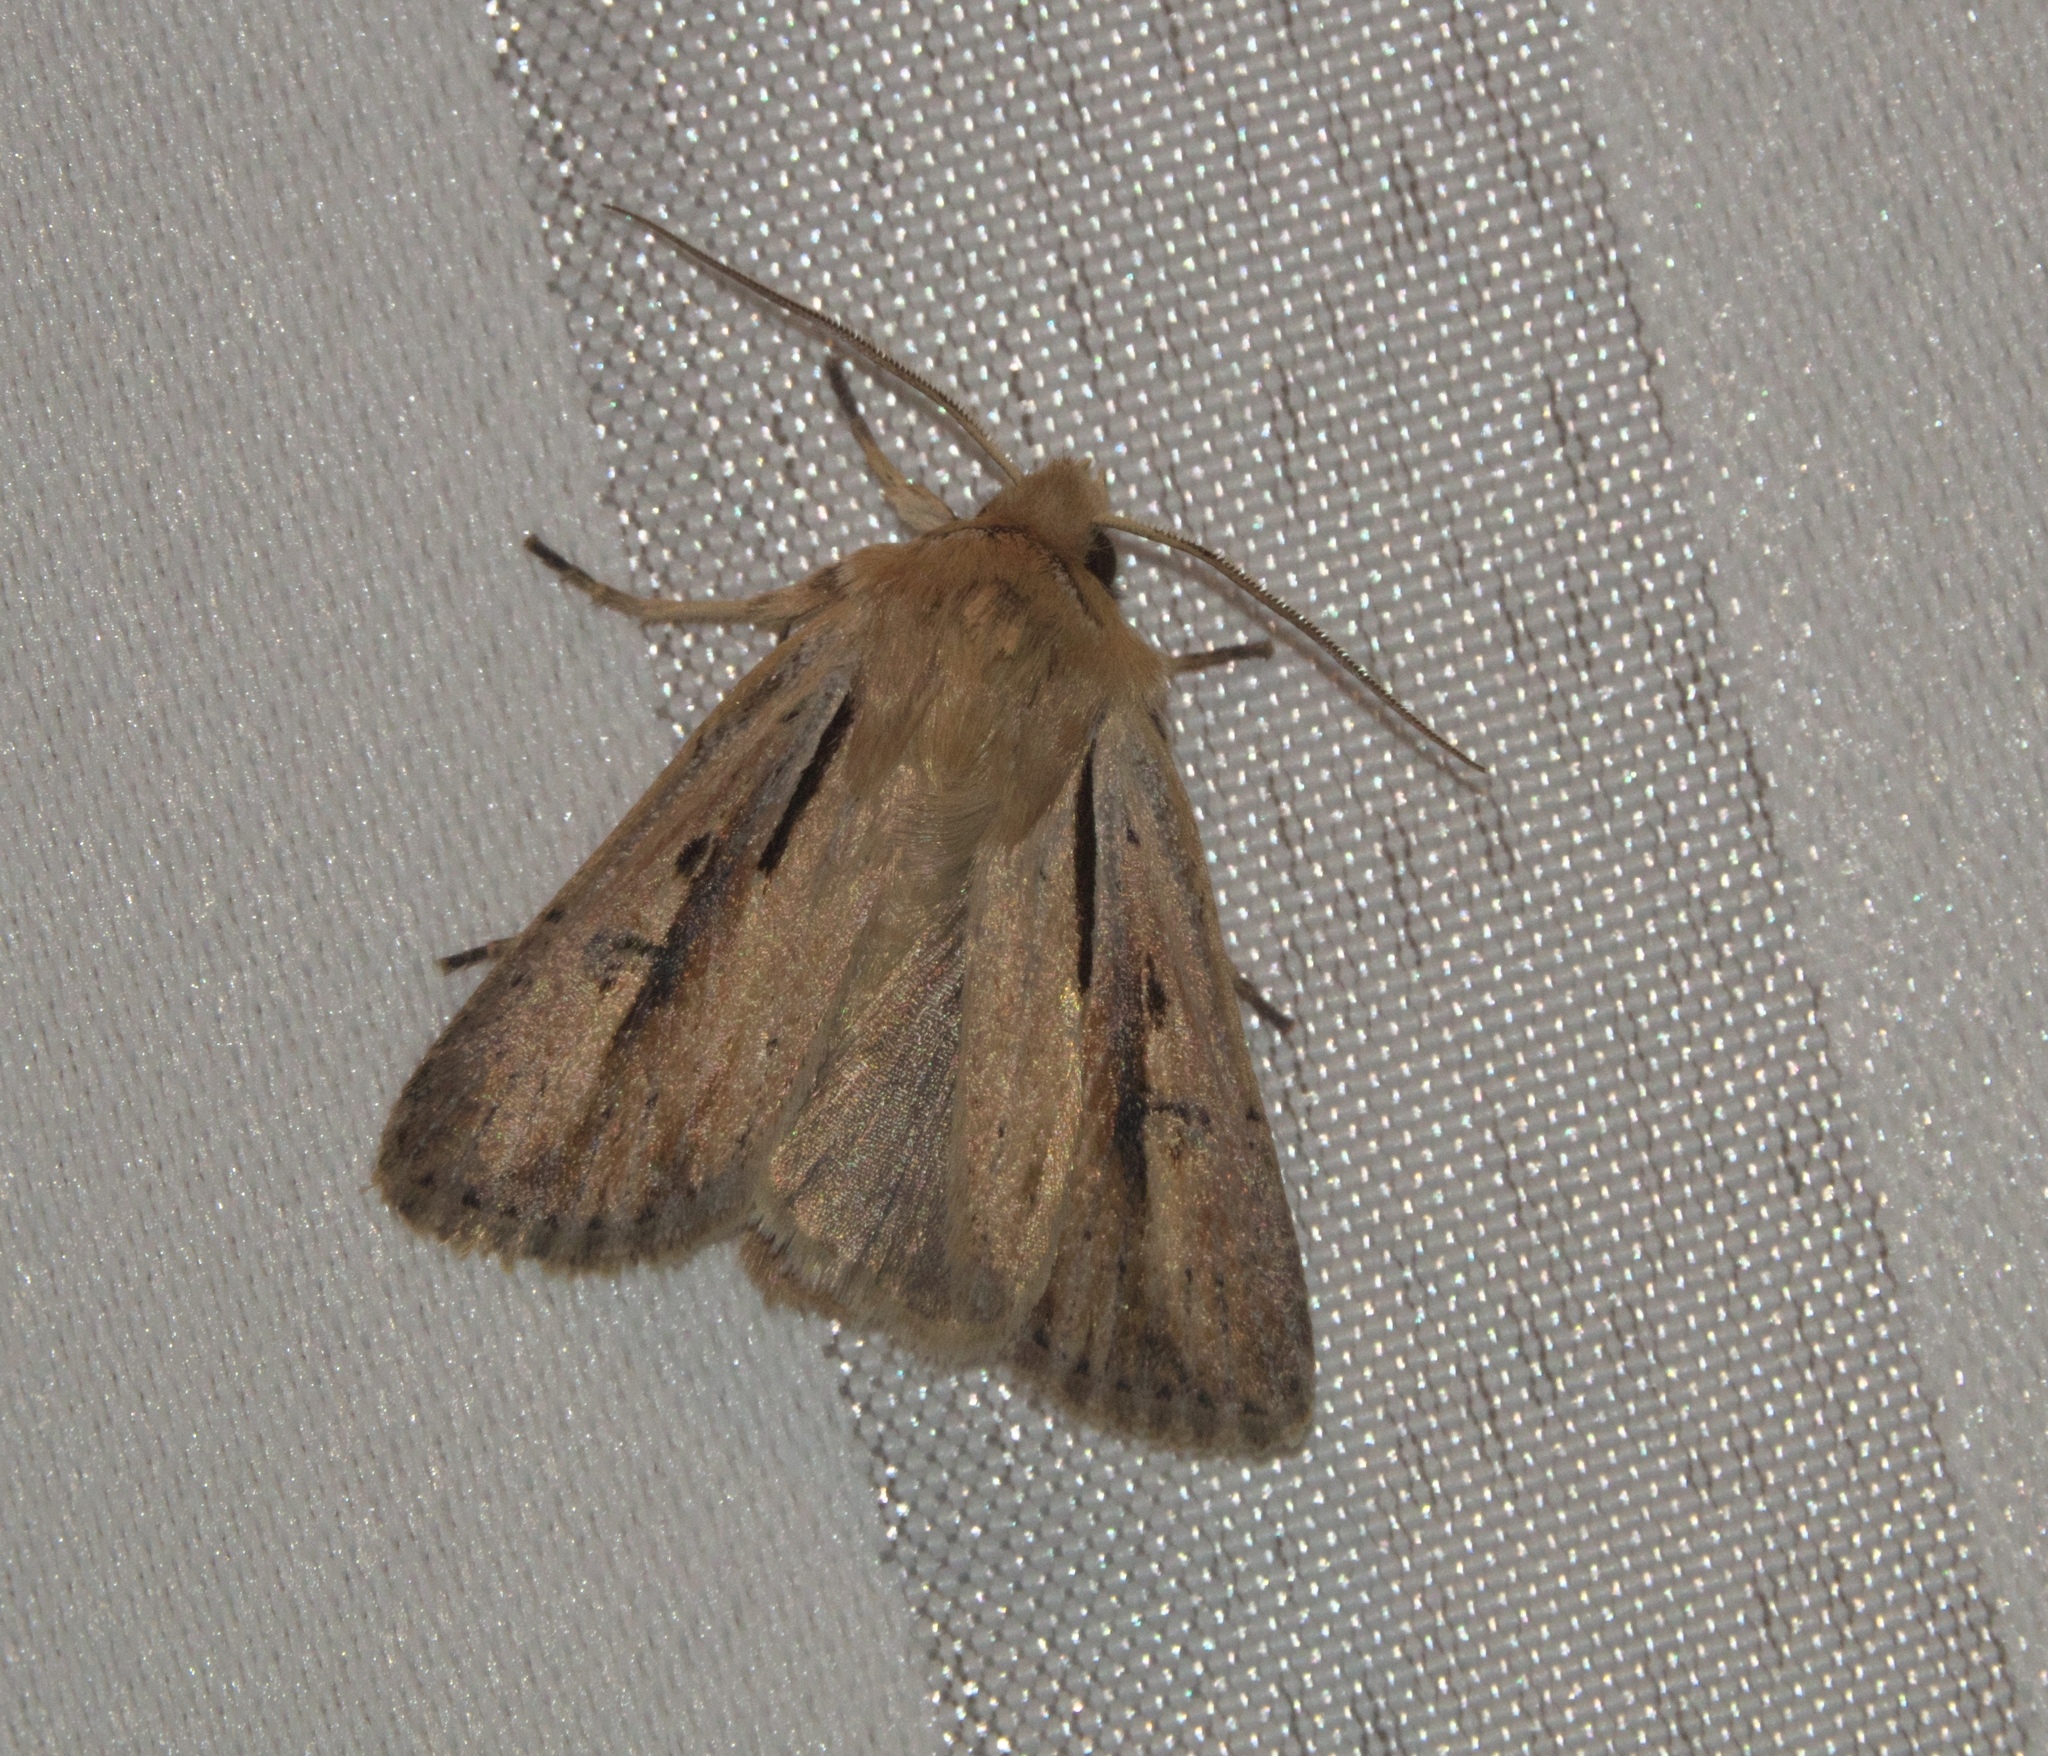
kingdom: Animalia
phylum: Arthropoda
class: Insecta
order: Lepidoptera
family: Noctuidae
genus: Ichneutica
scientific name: Ichneutica propria
